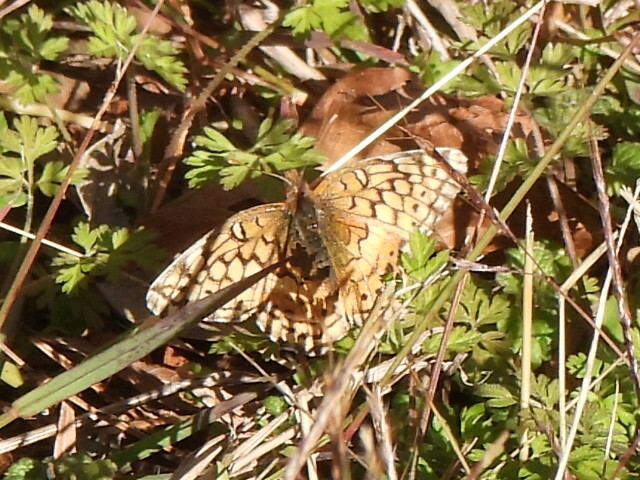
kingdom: Animalia
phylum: Arthropoda
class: Insecta
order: Lepidoptera
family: Nymphalidae
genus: Euptoieta
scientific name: Euptoieta claudia
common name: Variegated fritillary
